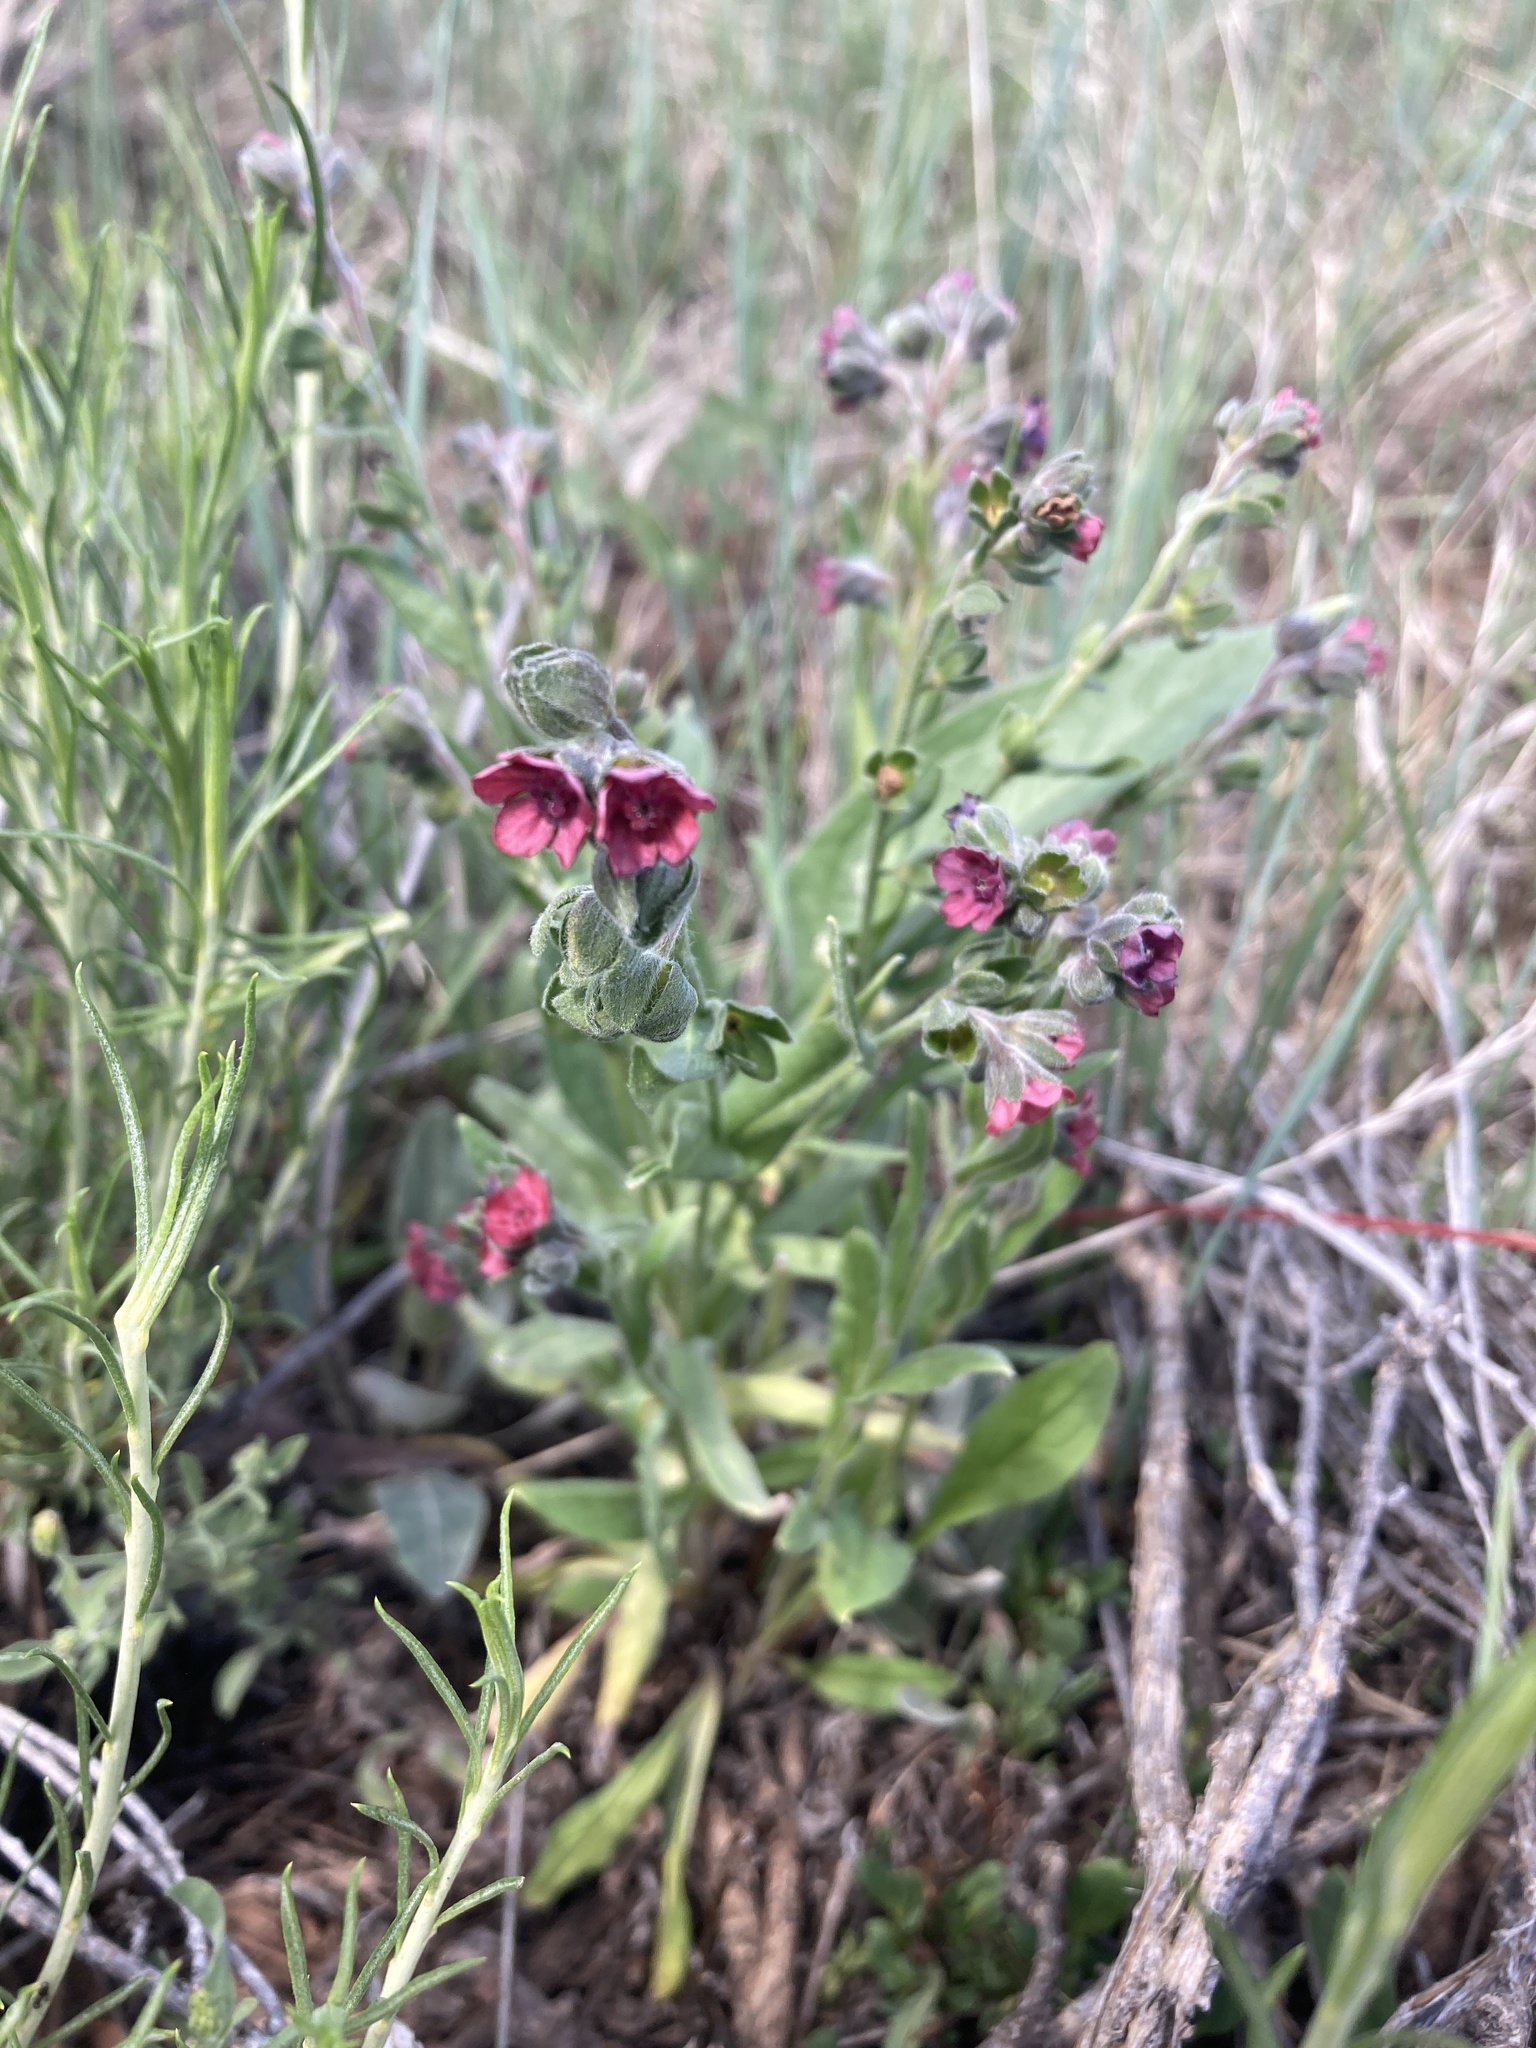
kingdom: Plantae
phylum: Tracheophyta
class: Magnoliopsida
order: Boraginales
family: Boraginaceae
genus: Cynoglossum
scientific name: Cynoglossum officinale
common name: Hound's-tongue
